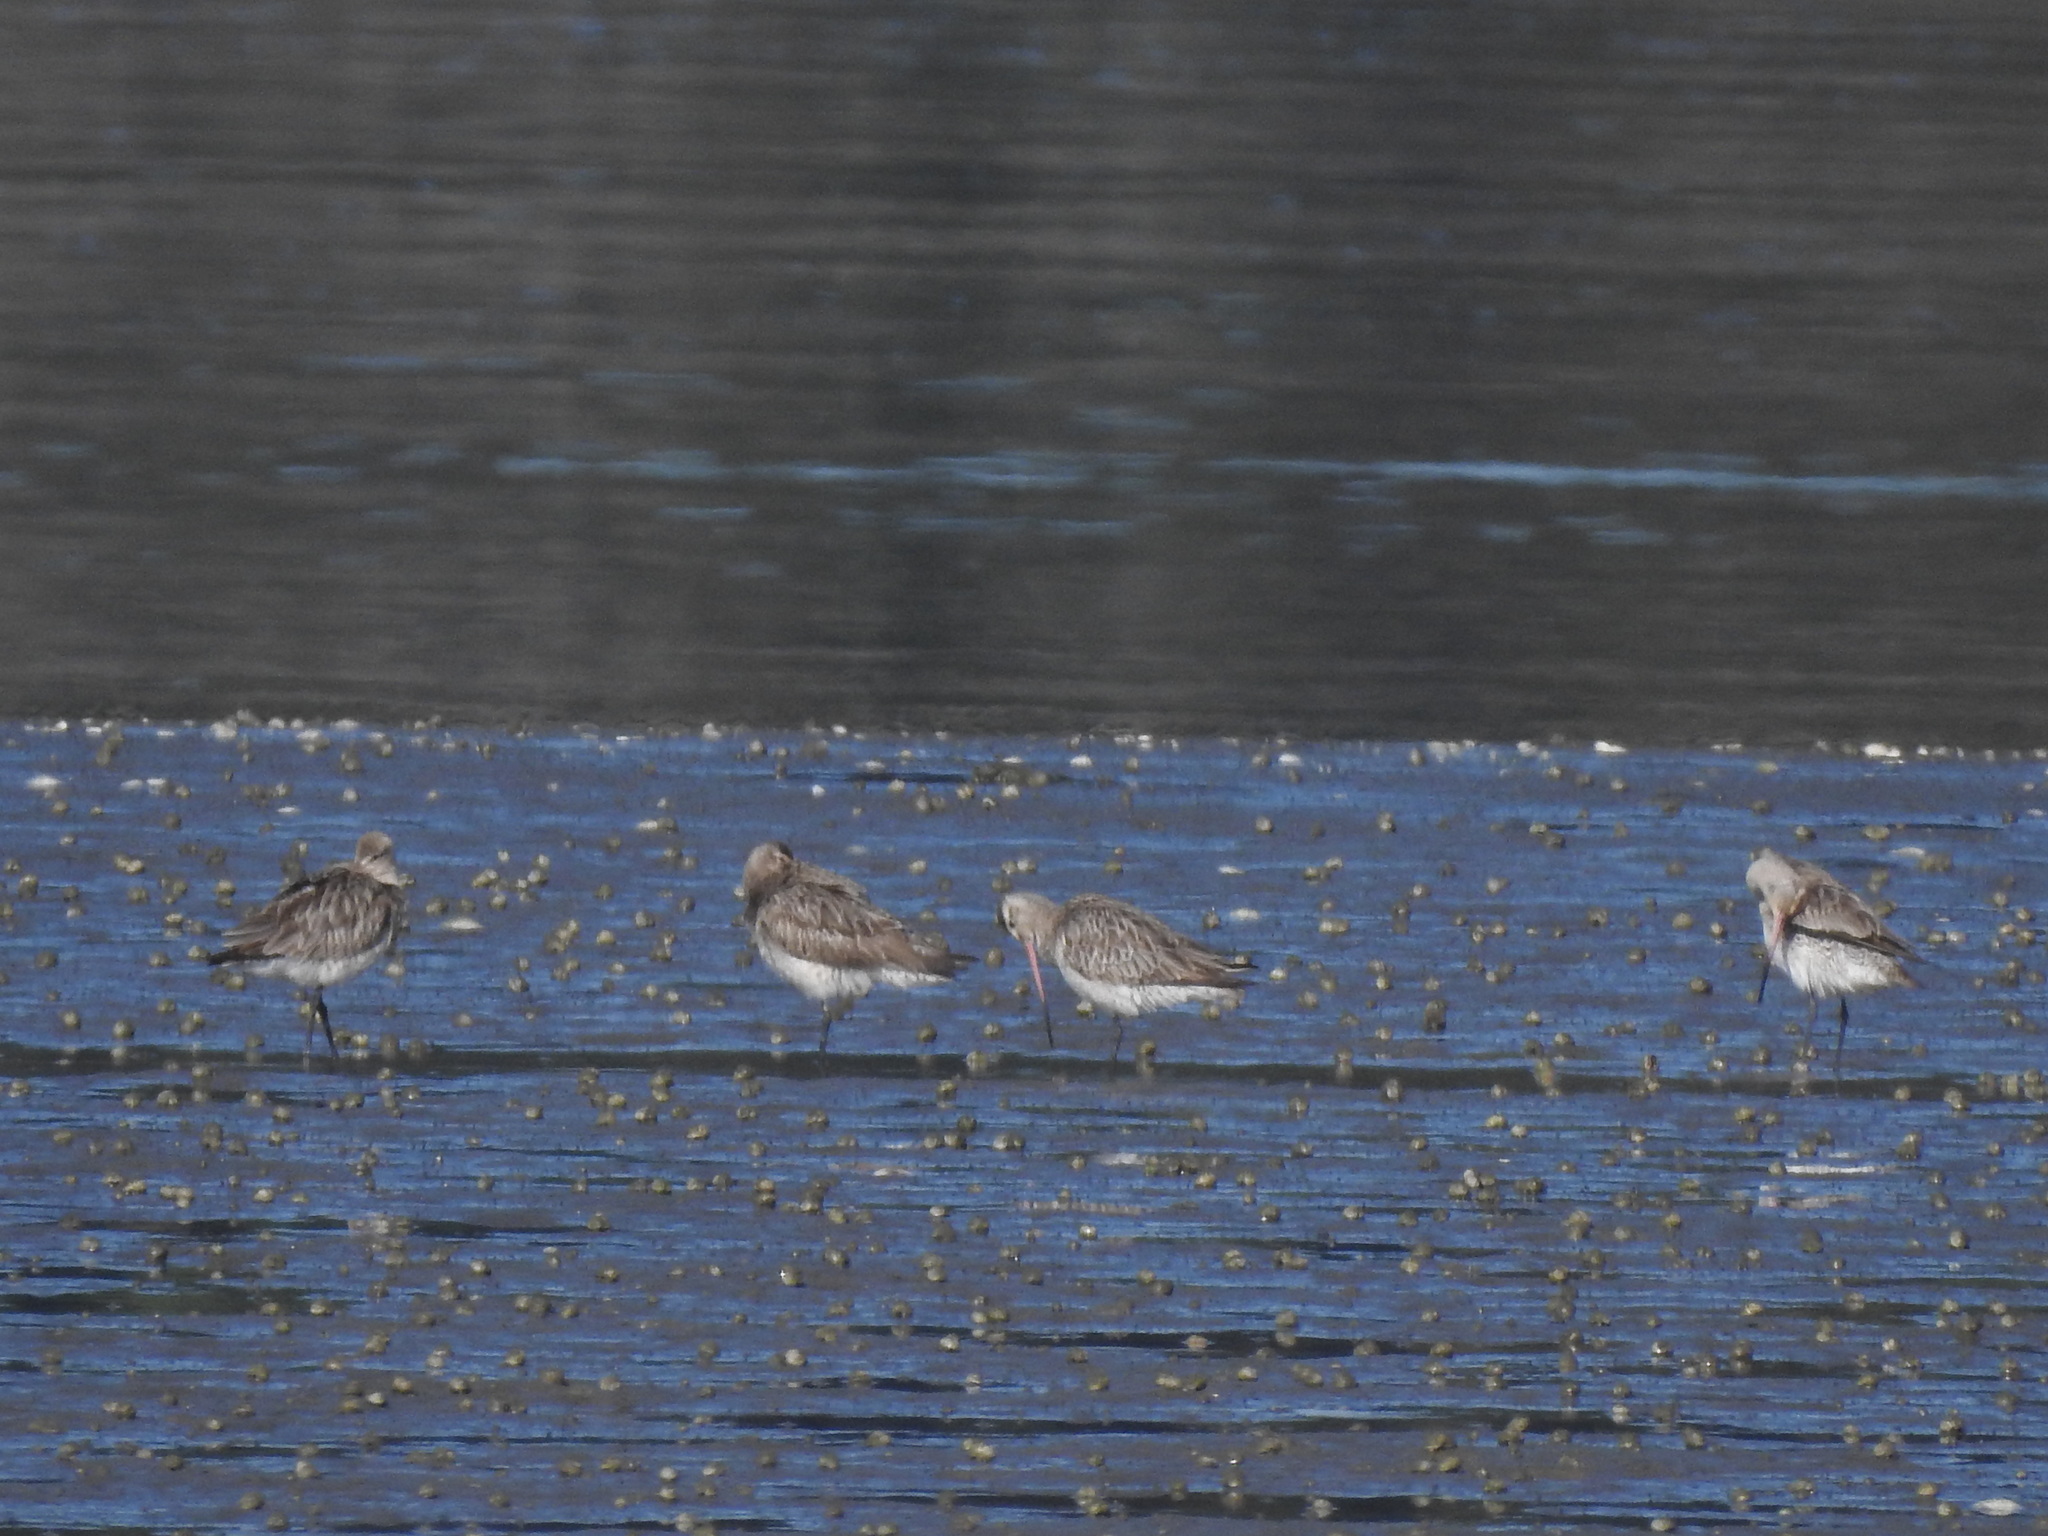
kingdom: Animalia
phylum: Chordata
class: Aves
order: Charadriiformes
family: Scolopacidae
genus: Limosa
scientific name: Limosa lapponica
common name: Bar-tailed godwit
